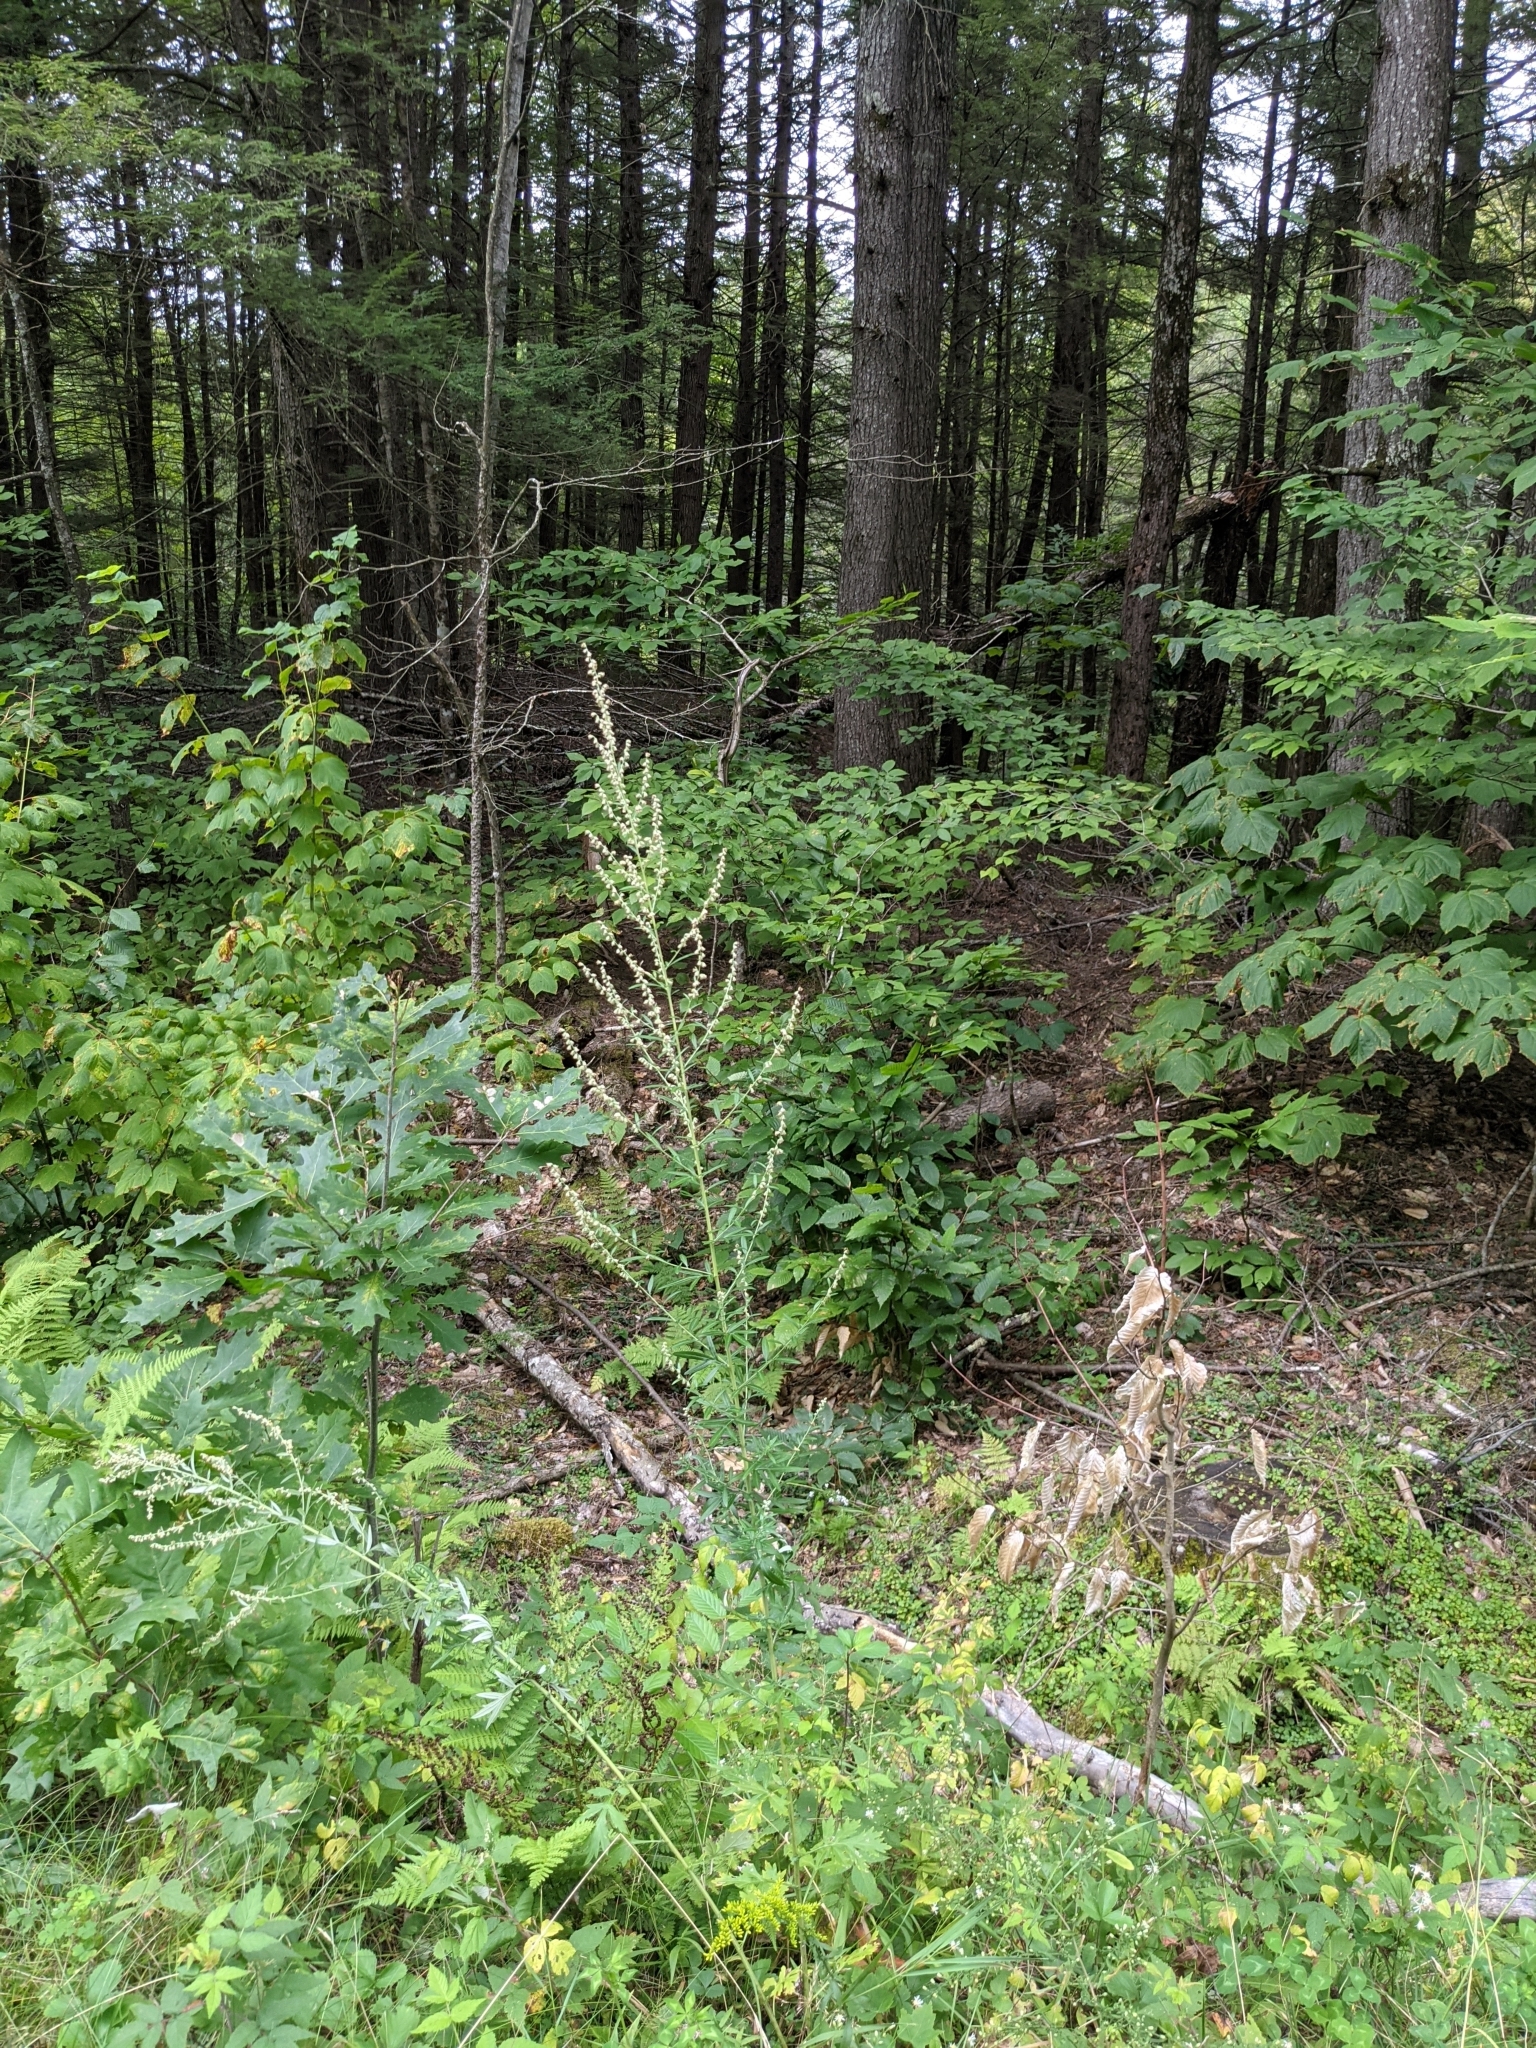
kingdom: Plantae
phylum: Tracheophyta
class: Magnoliopsida
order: Asterales
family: Asteraceae
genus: Artemisia
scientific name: Artemisia vulgaris
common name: Mugwort
